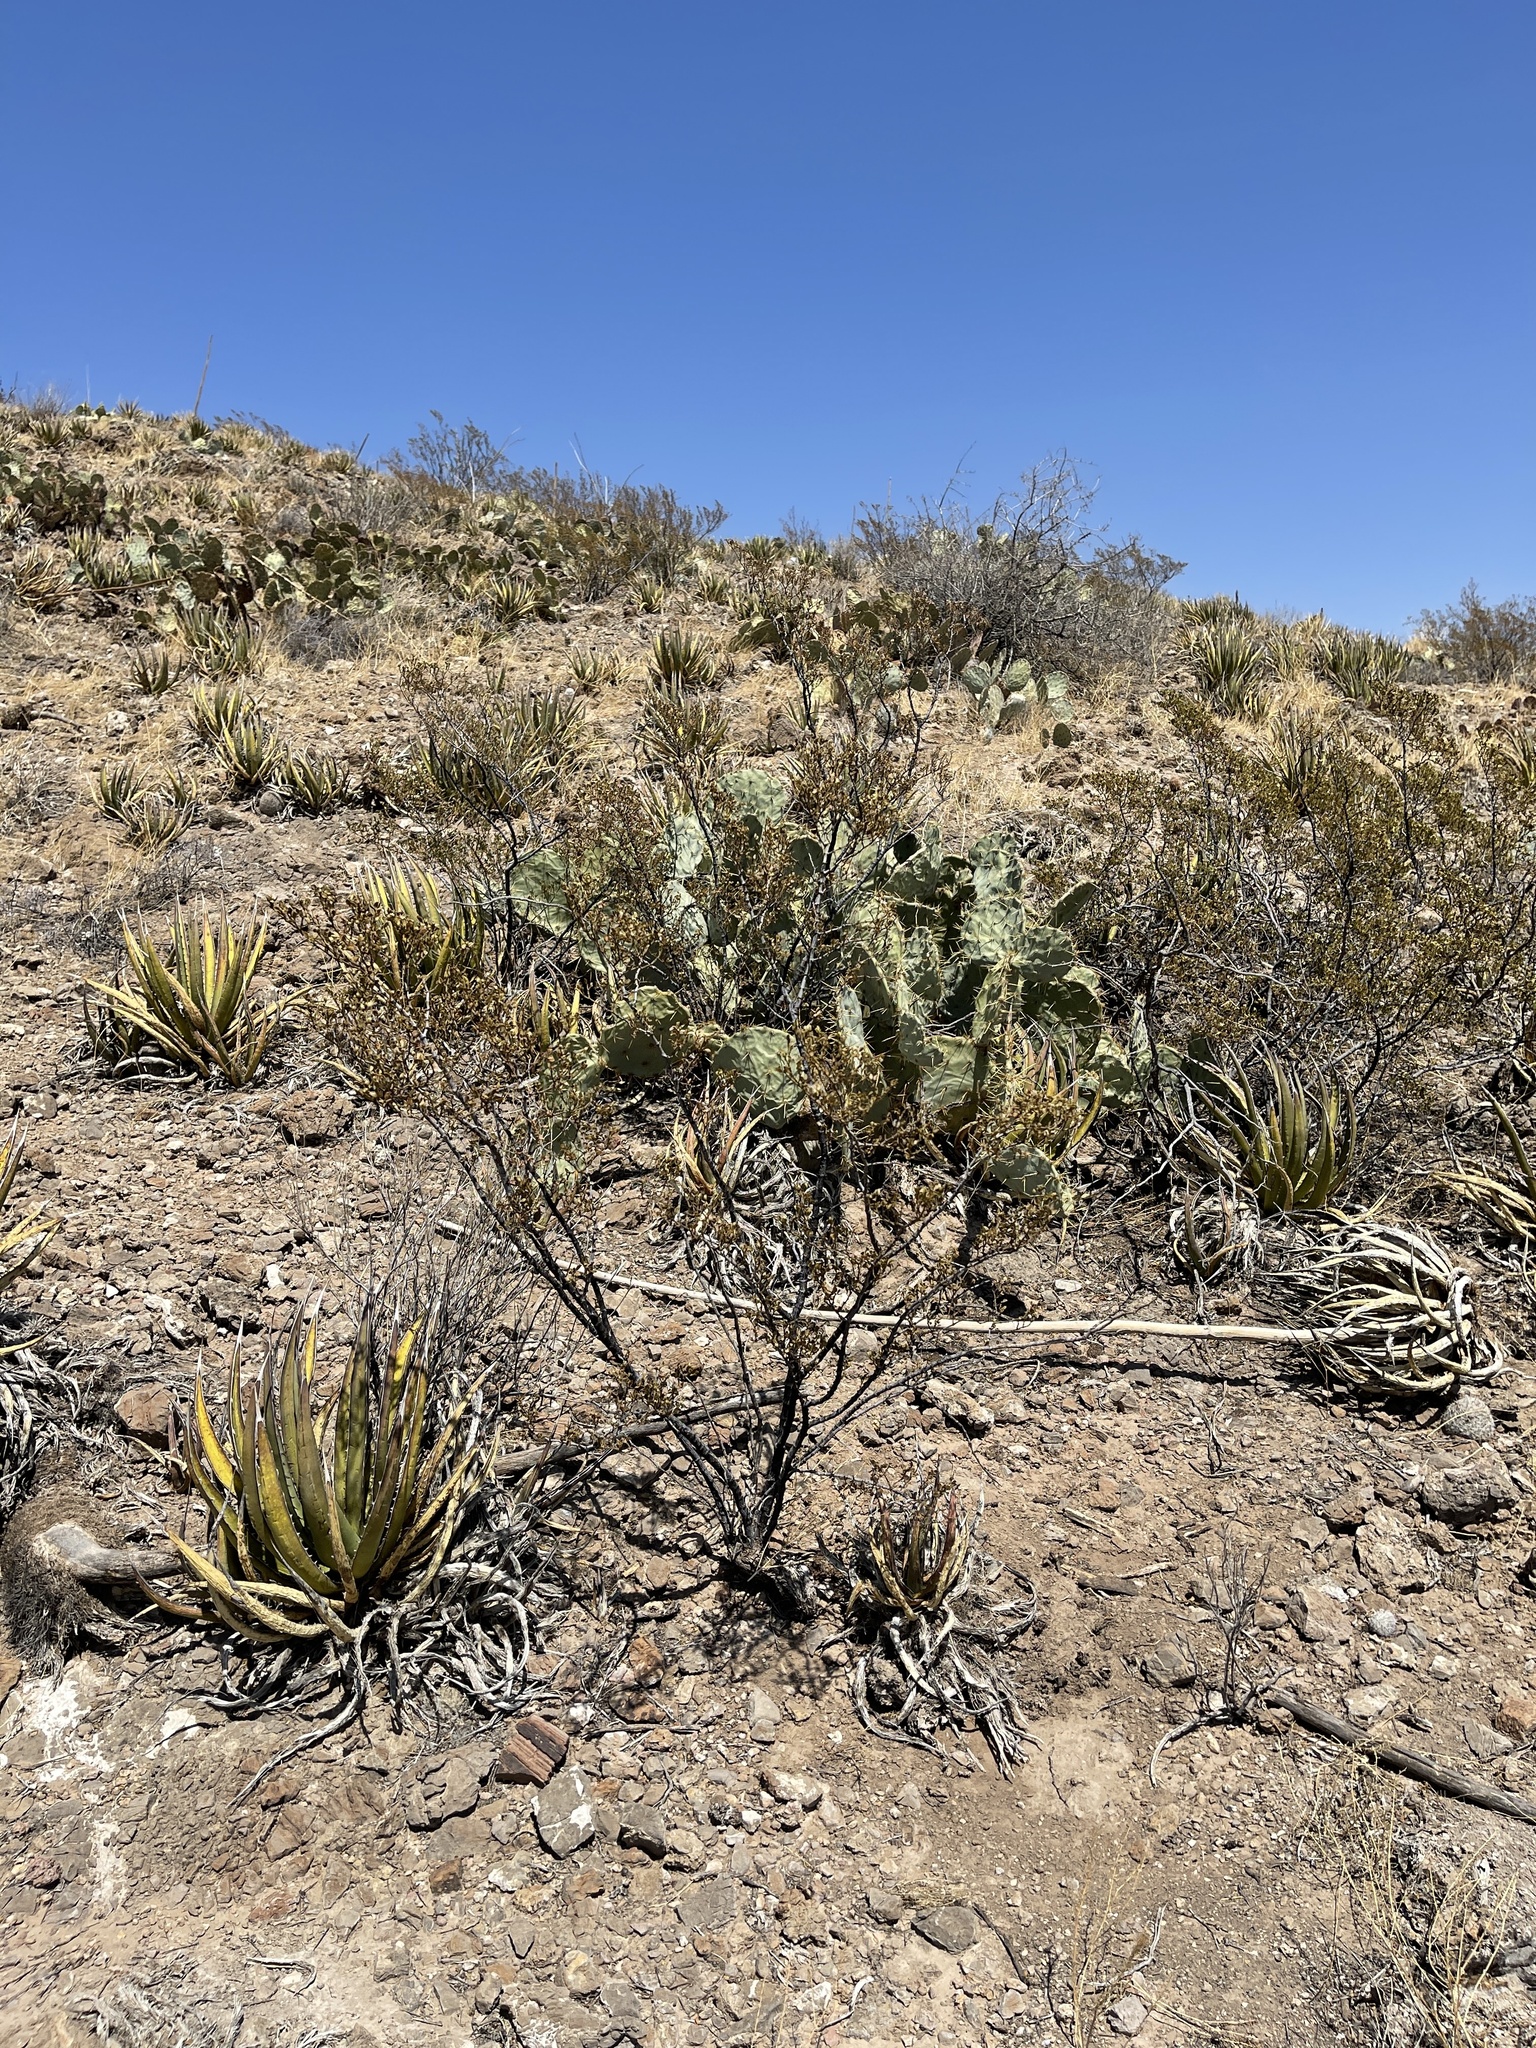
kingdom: Plantae
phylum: Tracheophyta
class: Magnoliopsida
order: Zygophyllales
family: Zygophyllaceae
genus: Larrea
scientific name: Larrea tridentata
